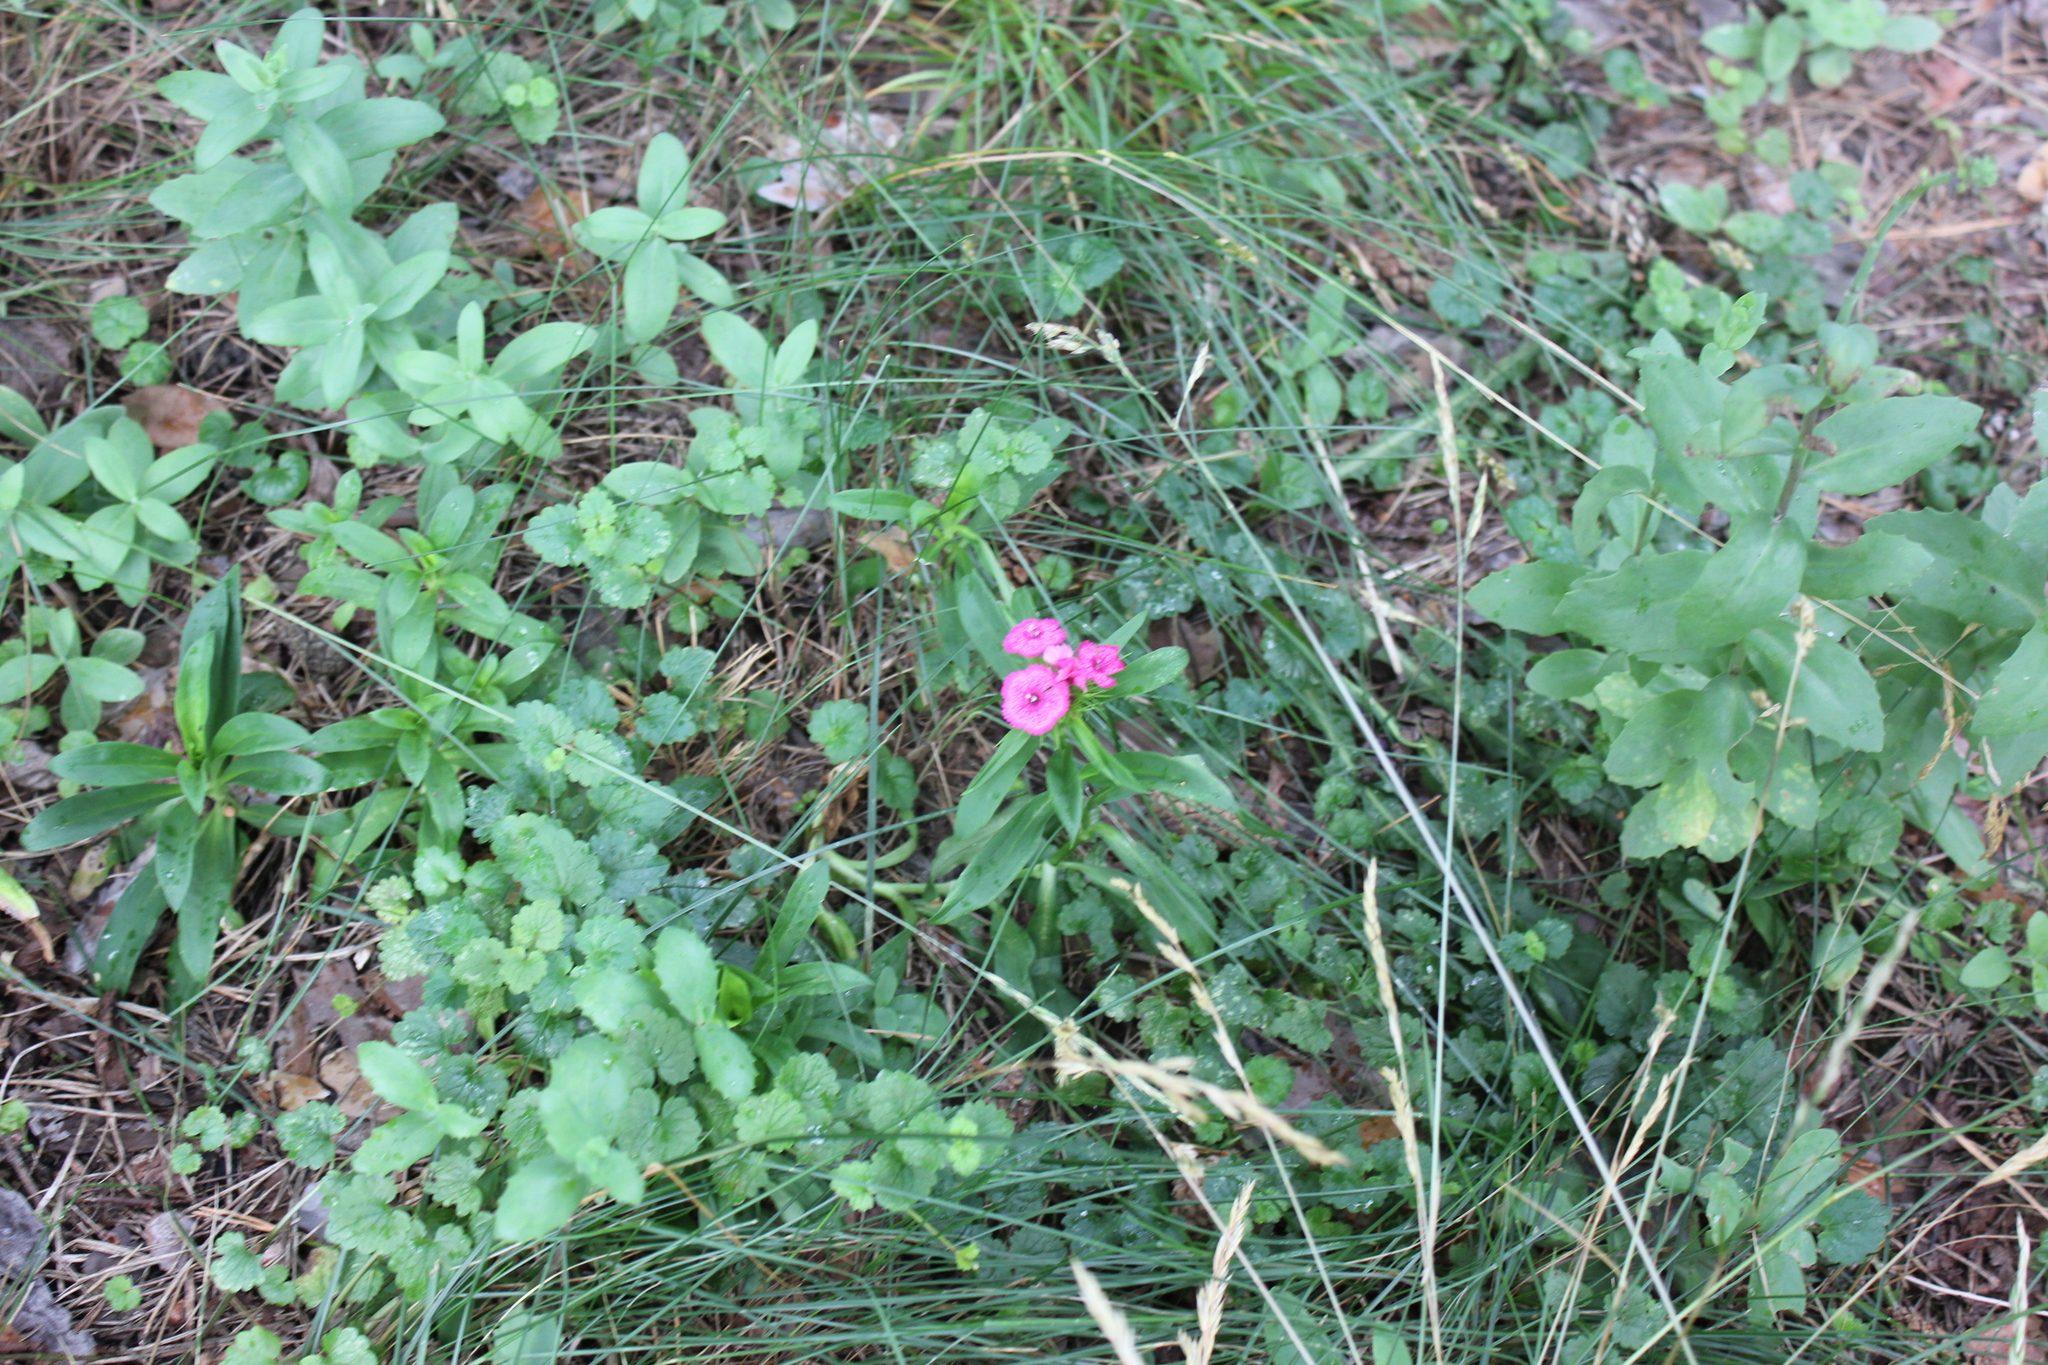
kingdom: Plantae
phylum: Tracheophyta
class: Magnoliopsida
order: Caryophyllales
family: Caryophyllaceae
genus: Dianthus
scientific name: Dianthus barbatus
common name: Sweet-william
